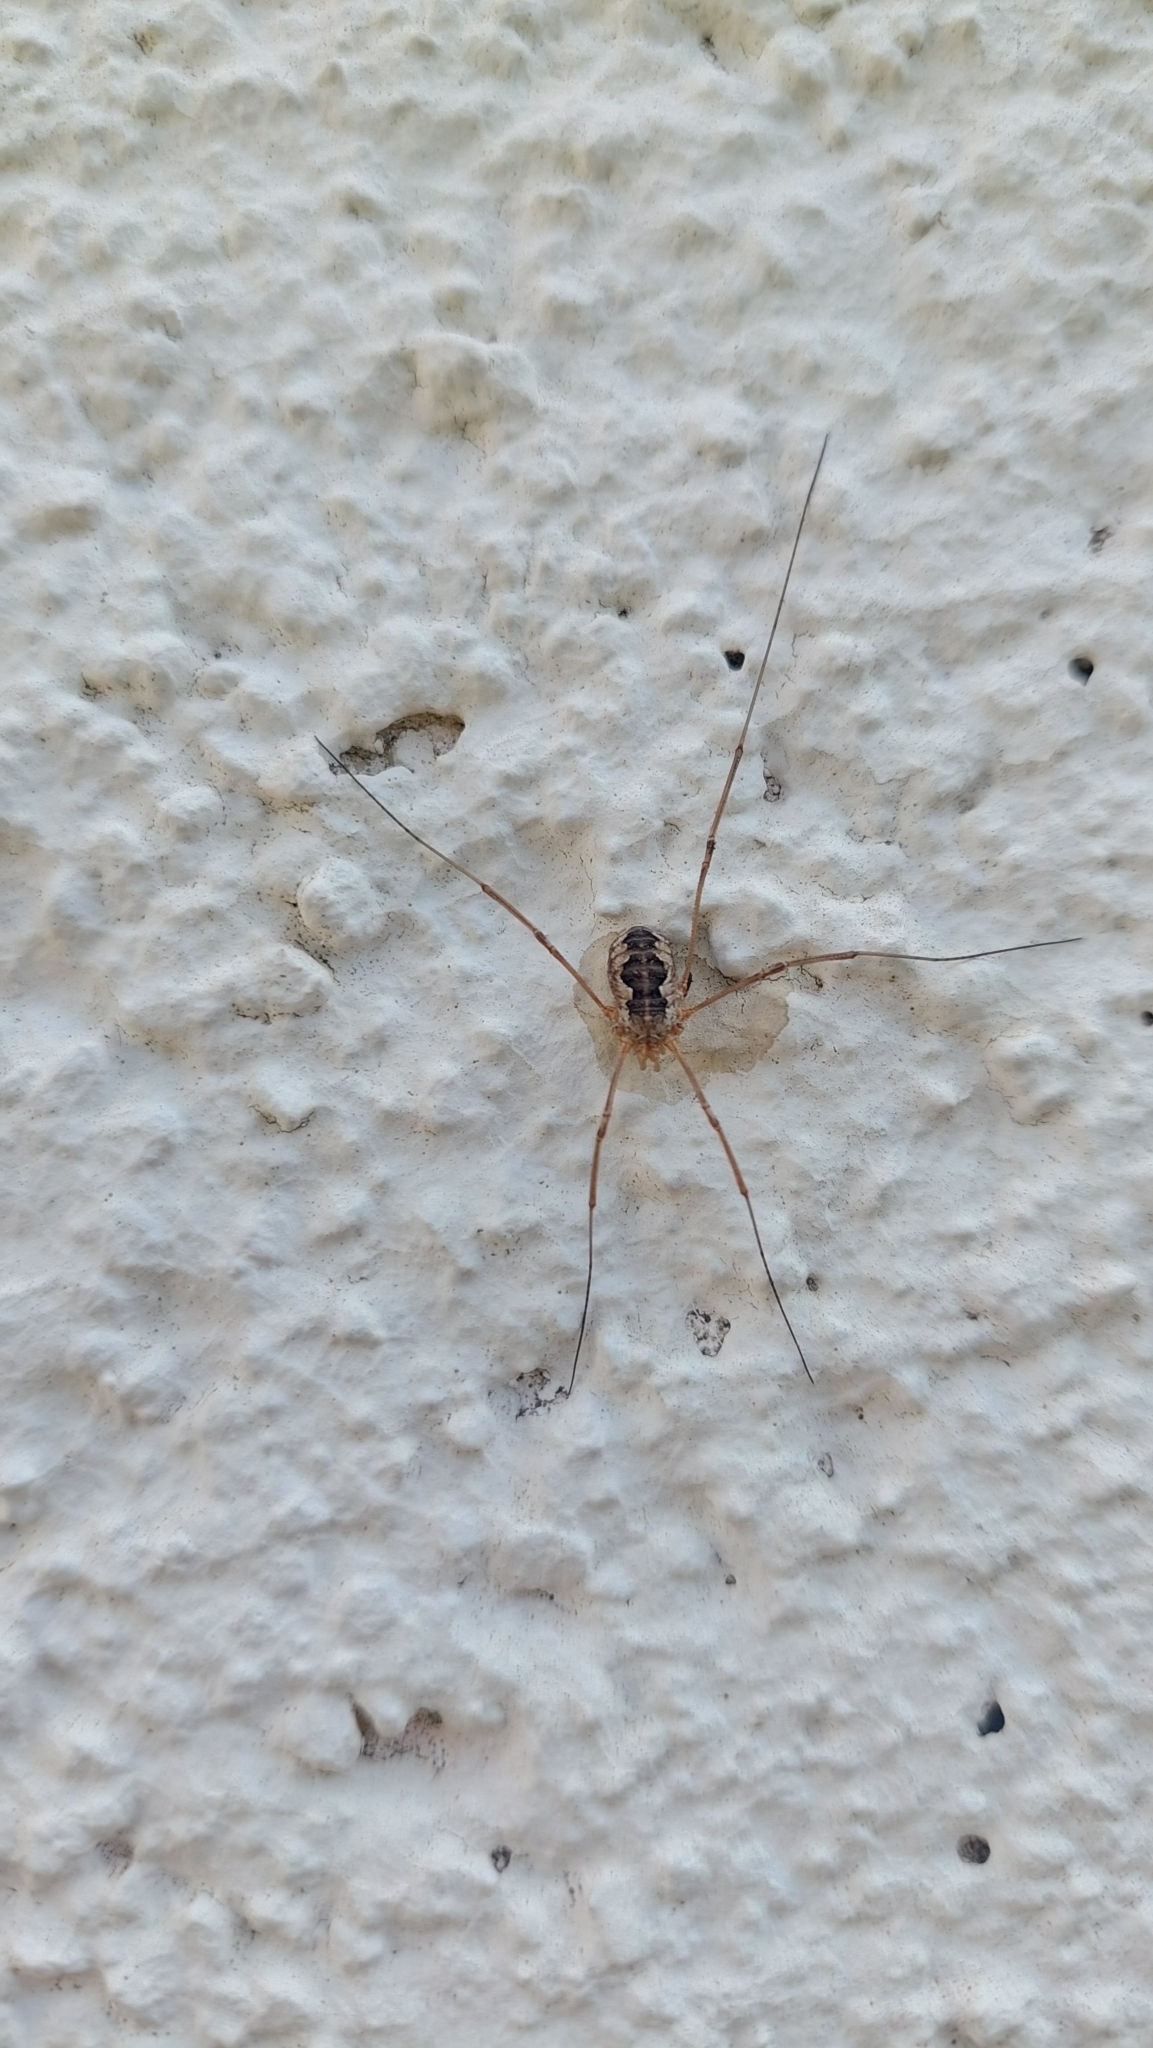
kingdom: Animalia
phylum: Arthropoda
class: Arachnida
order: Opiliones
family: Phalangiidae
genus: Phalangium
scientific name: Phalangium opilio
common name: Daddy longleg
